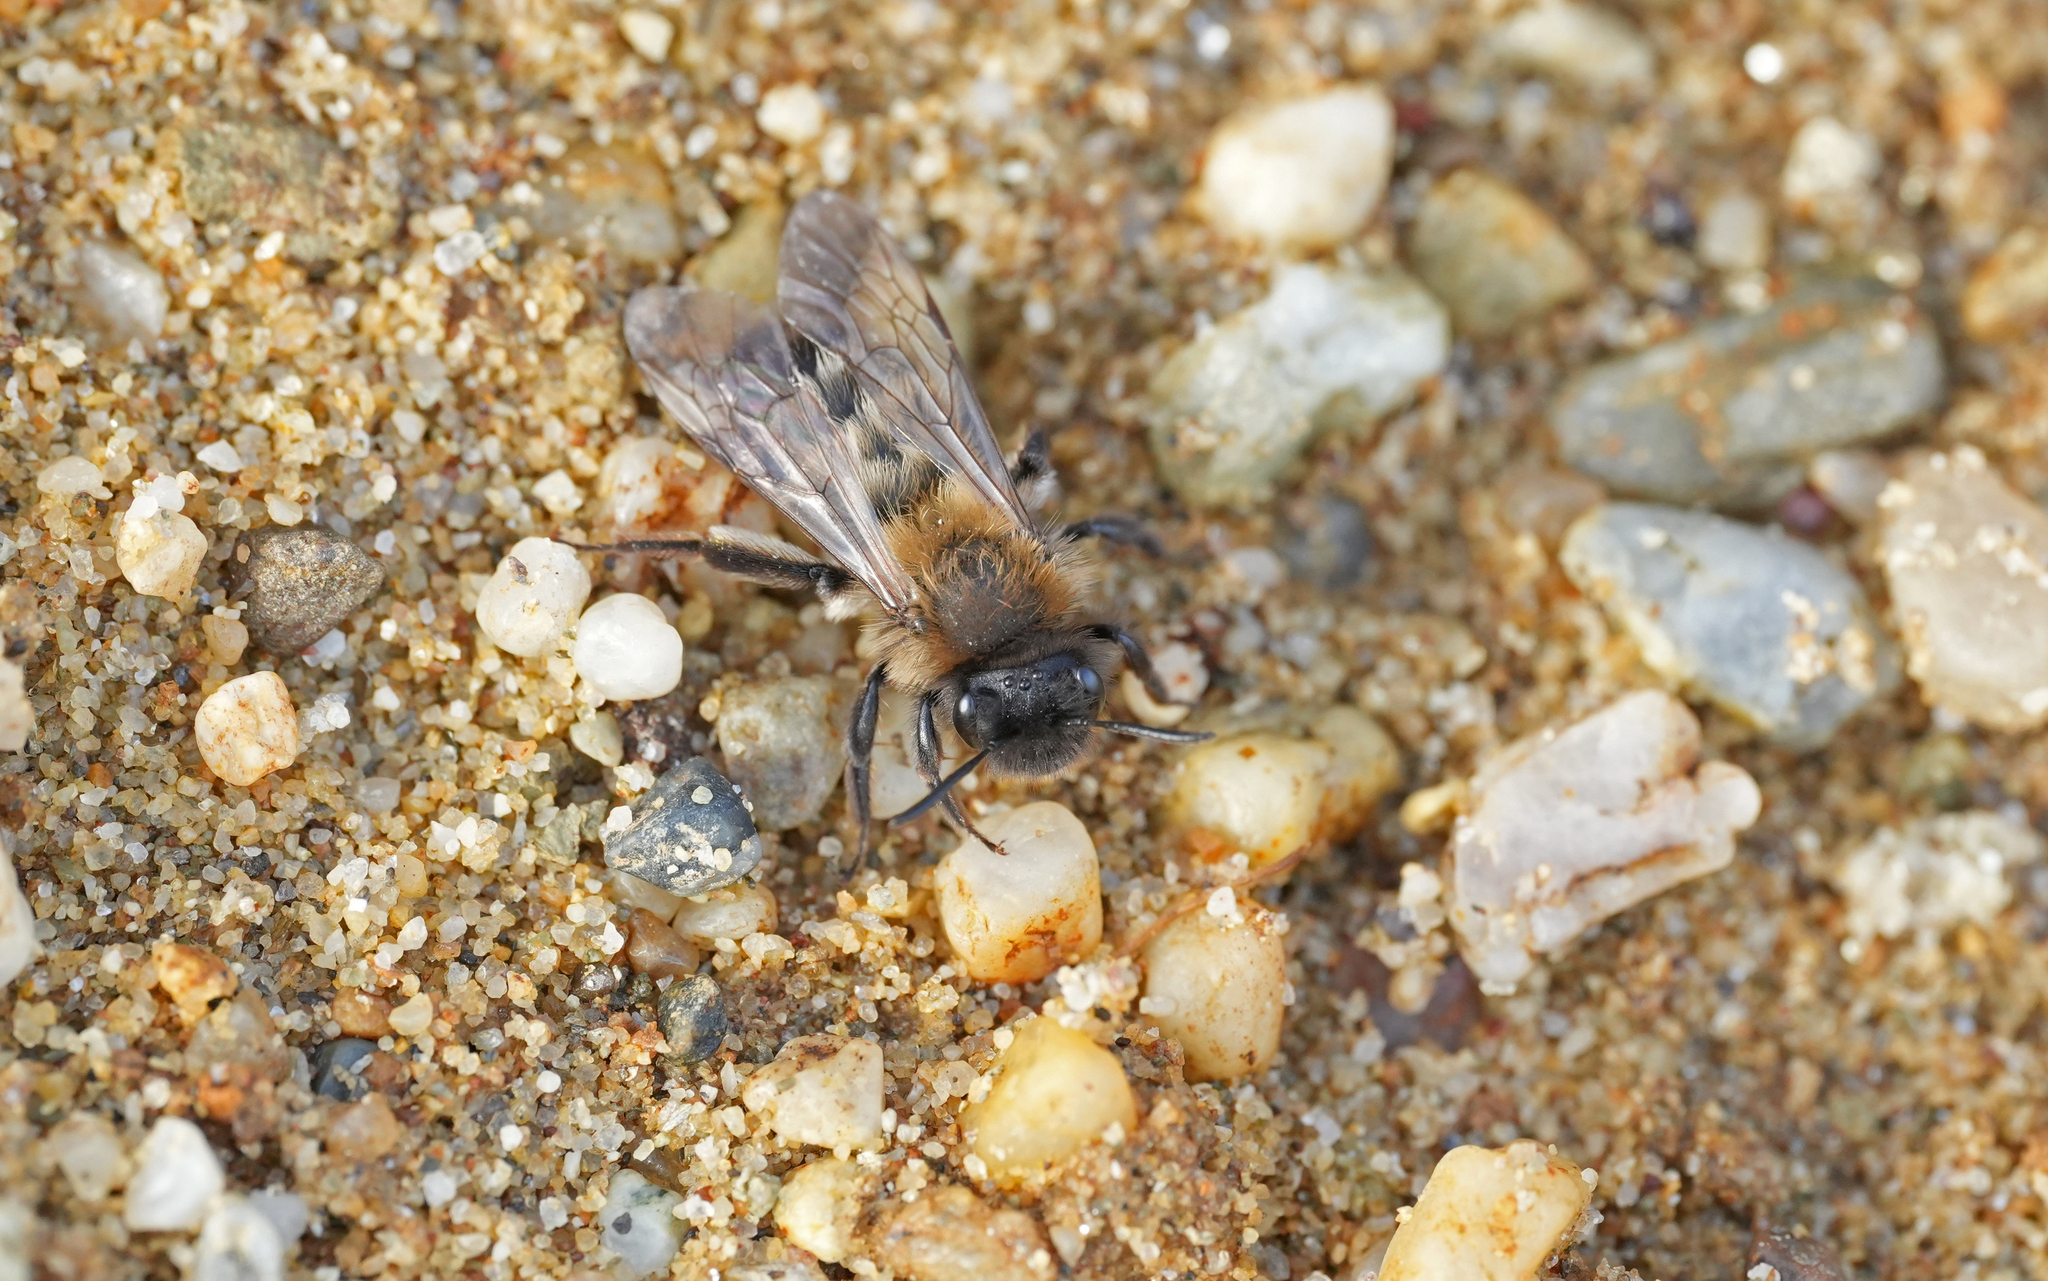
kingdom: Animalia
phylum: Arthropoda
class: Insecta
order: Hymenoptera
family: Andrenidae
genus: Andrena
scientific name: Andrena nycthemera
